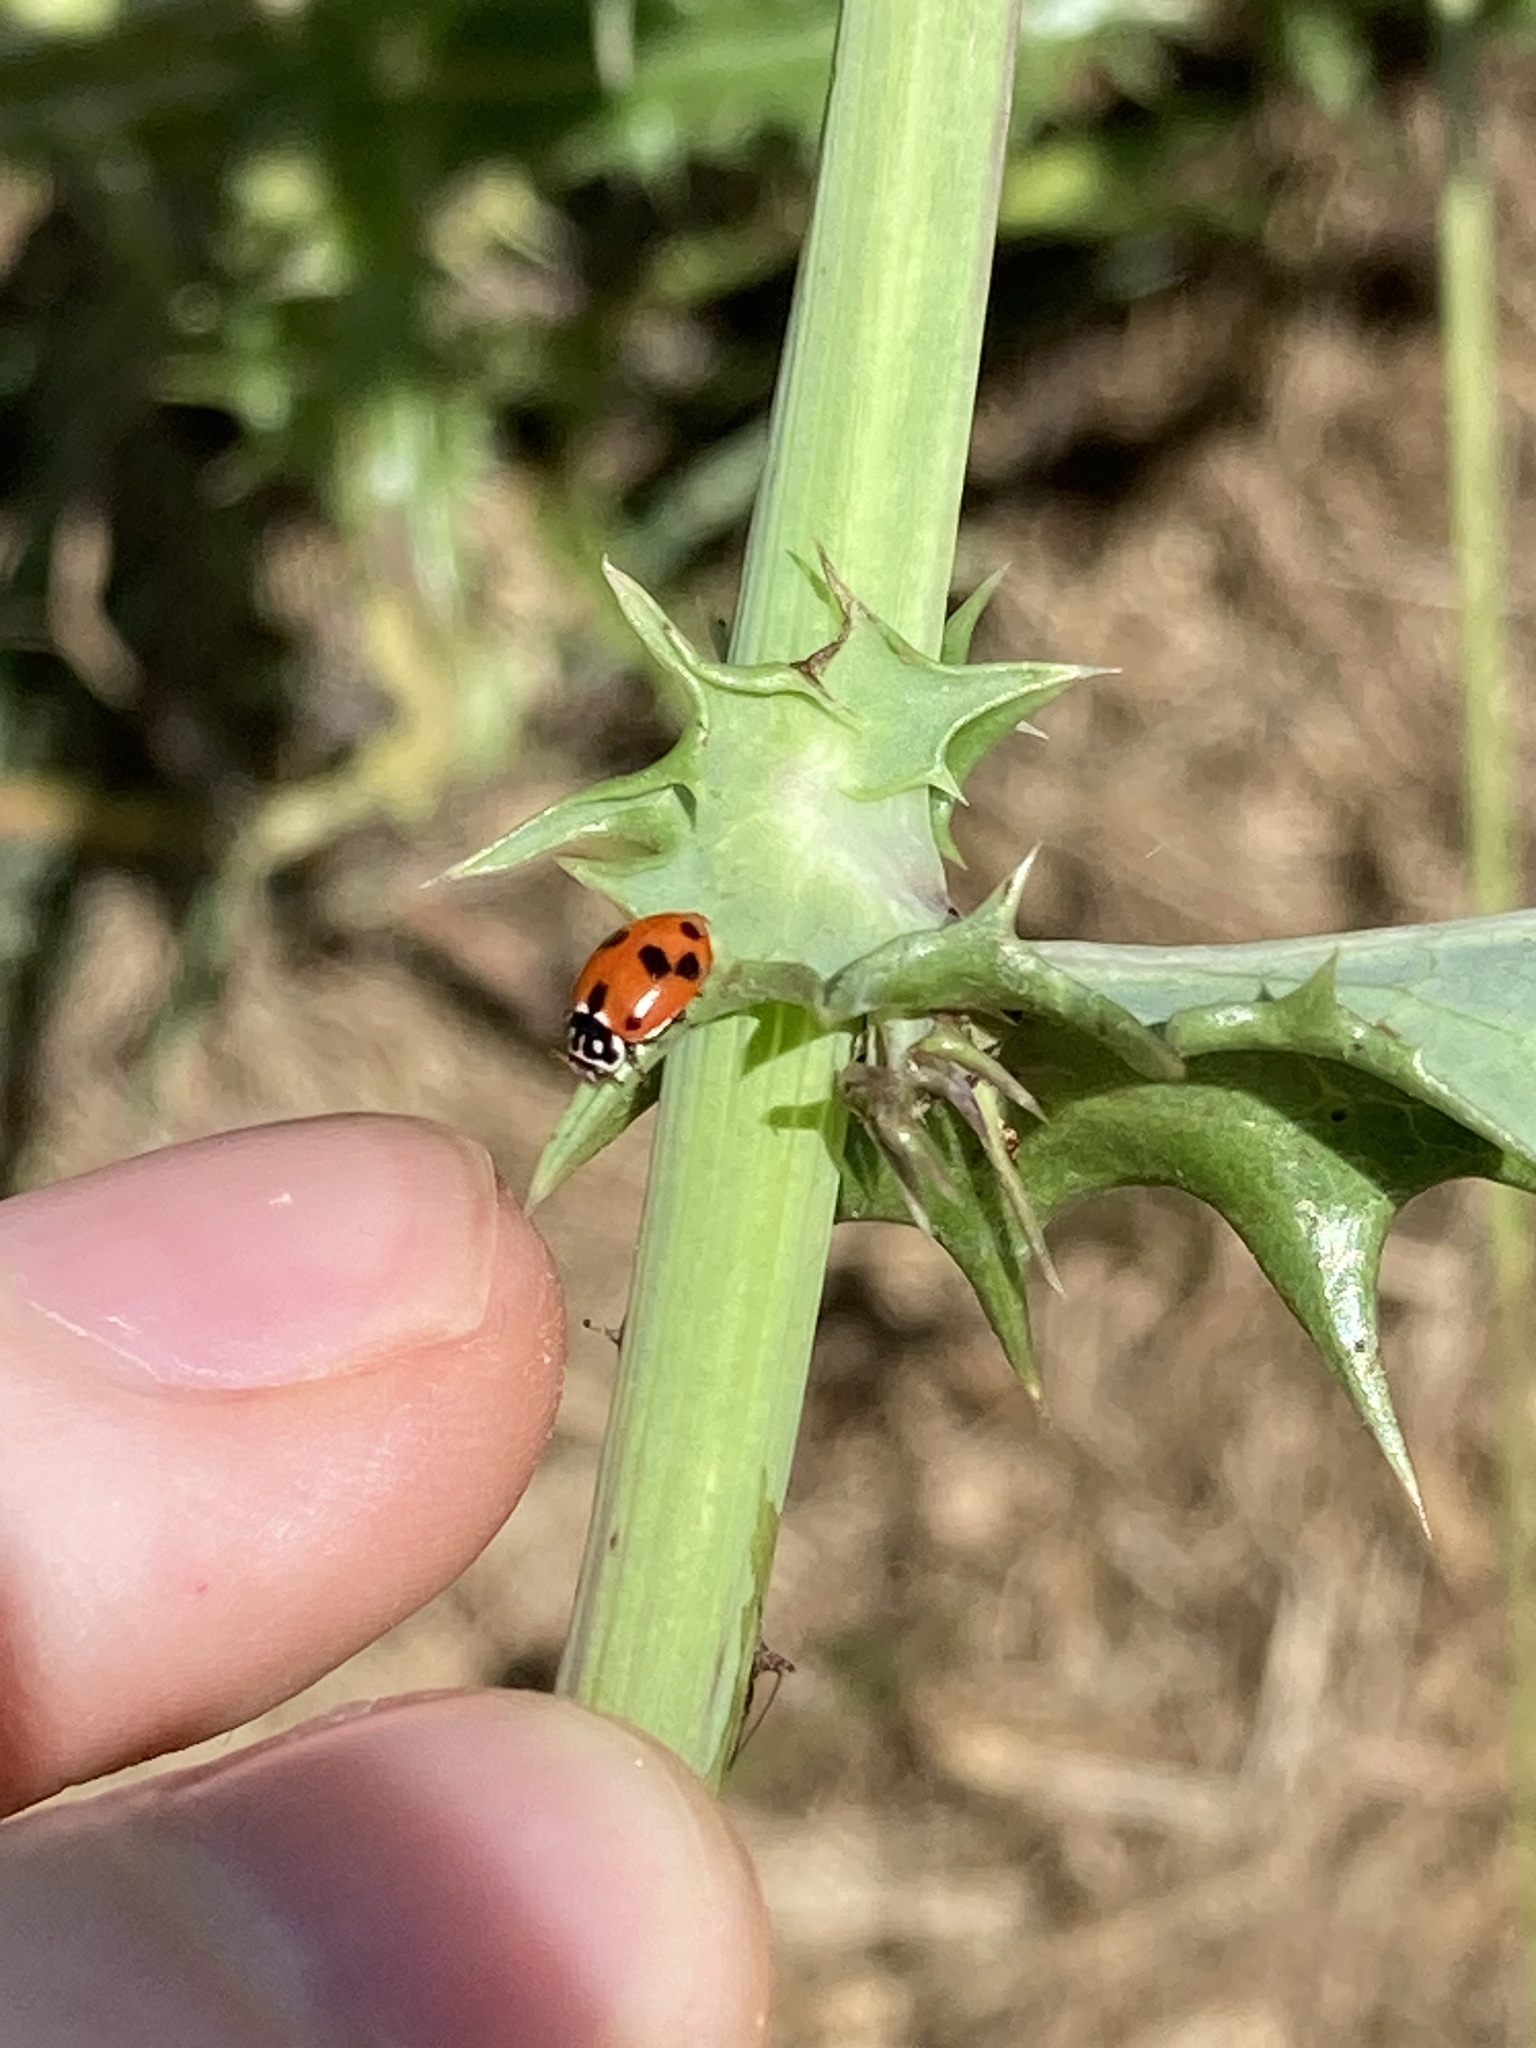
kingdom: Animalia
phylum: Arthropoda
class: Insecta
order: Coleoptera
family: Coccinellidae
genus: Hippodamia
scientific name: Hippodamia variegata
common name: Ladybird beetle
